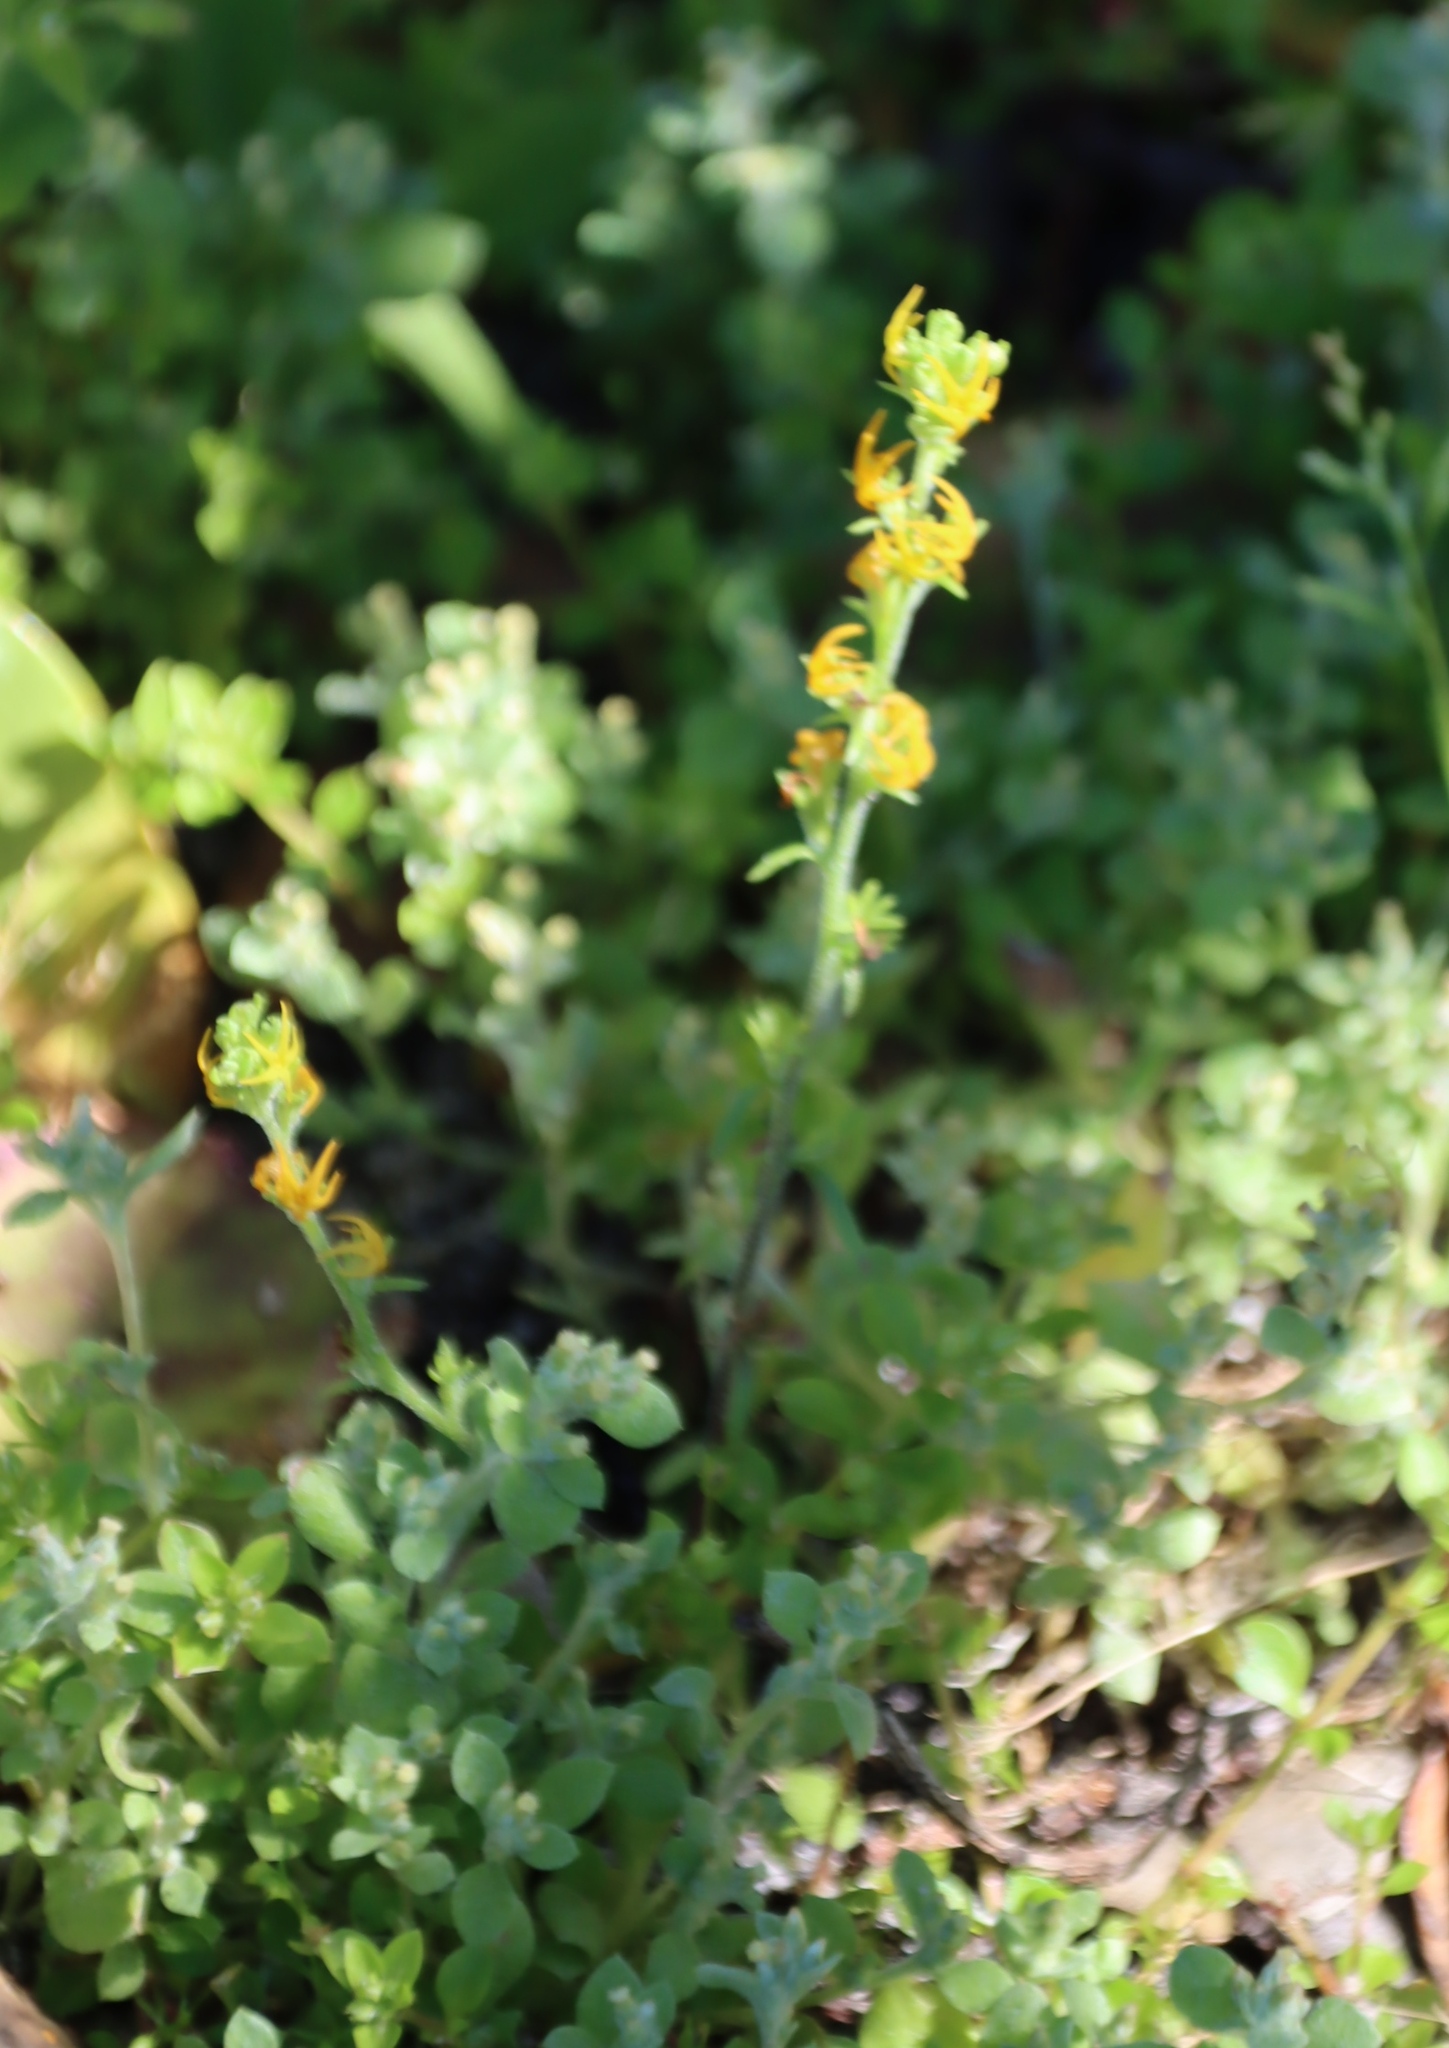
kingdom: Plantae
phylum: Tracheophyta
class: Magnoliopsida
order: Lamiales
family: Scrophulariaceae
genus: Manulea
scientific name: Manulea cheiranthus
